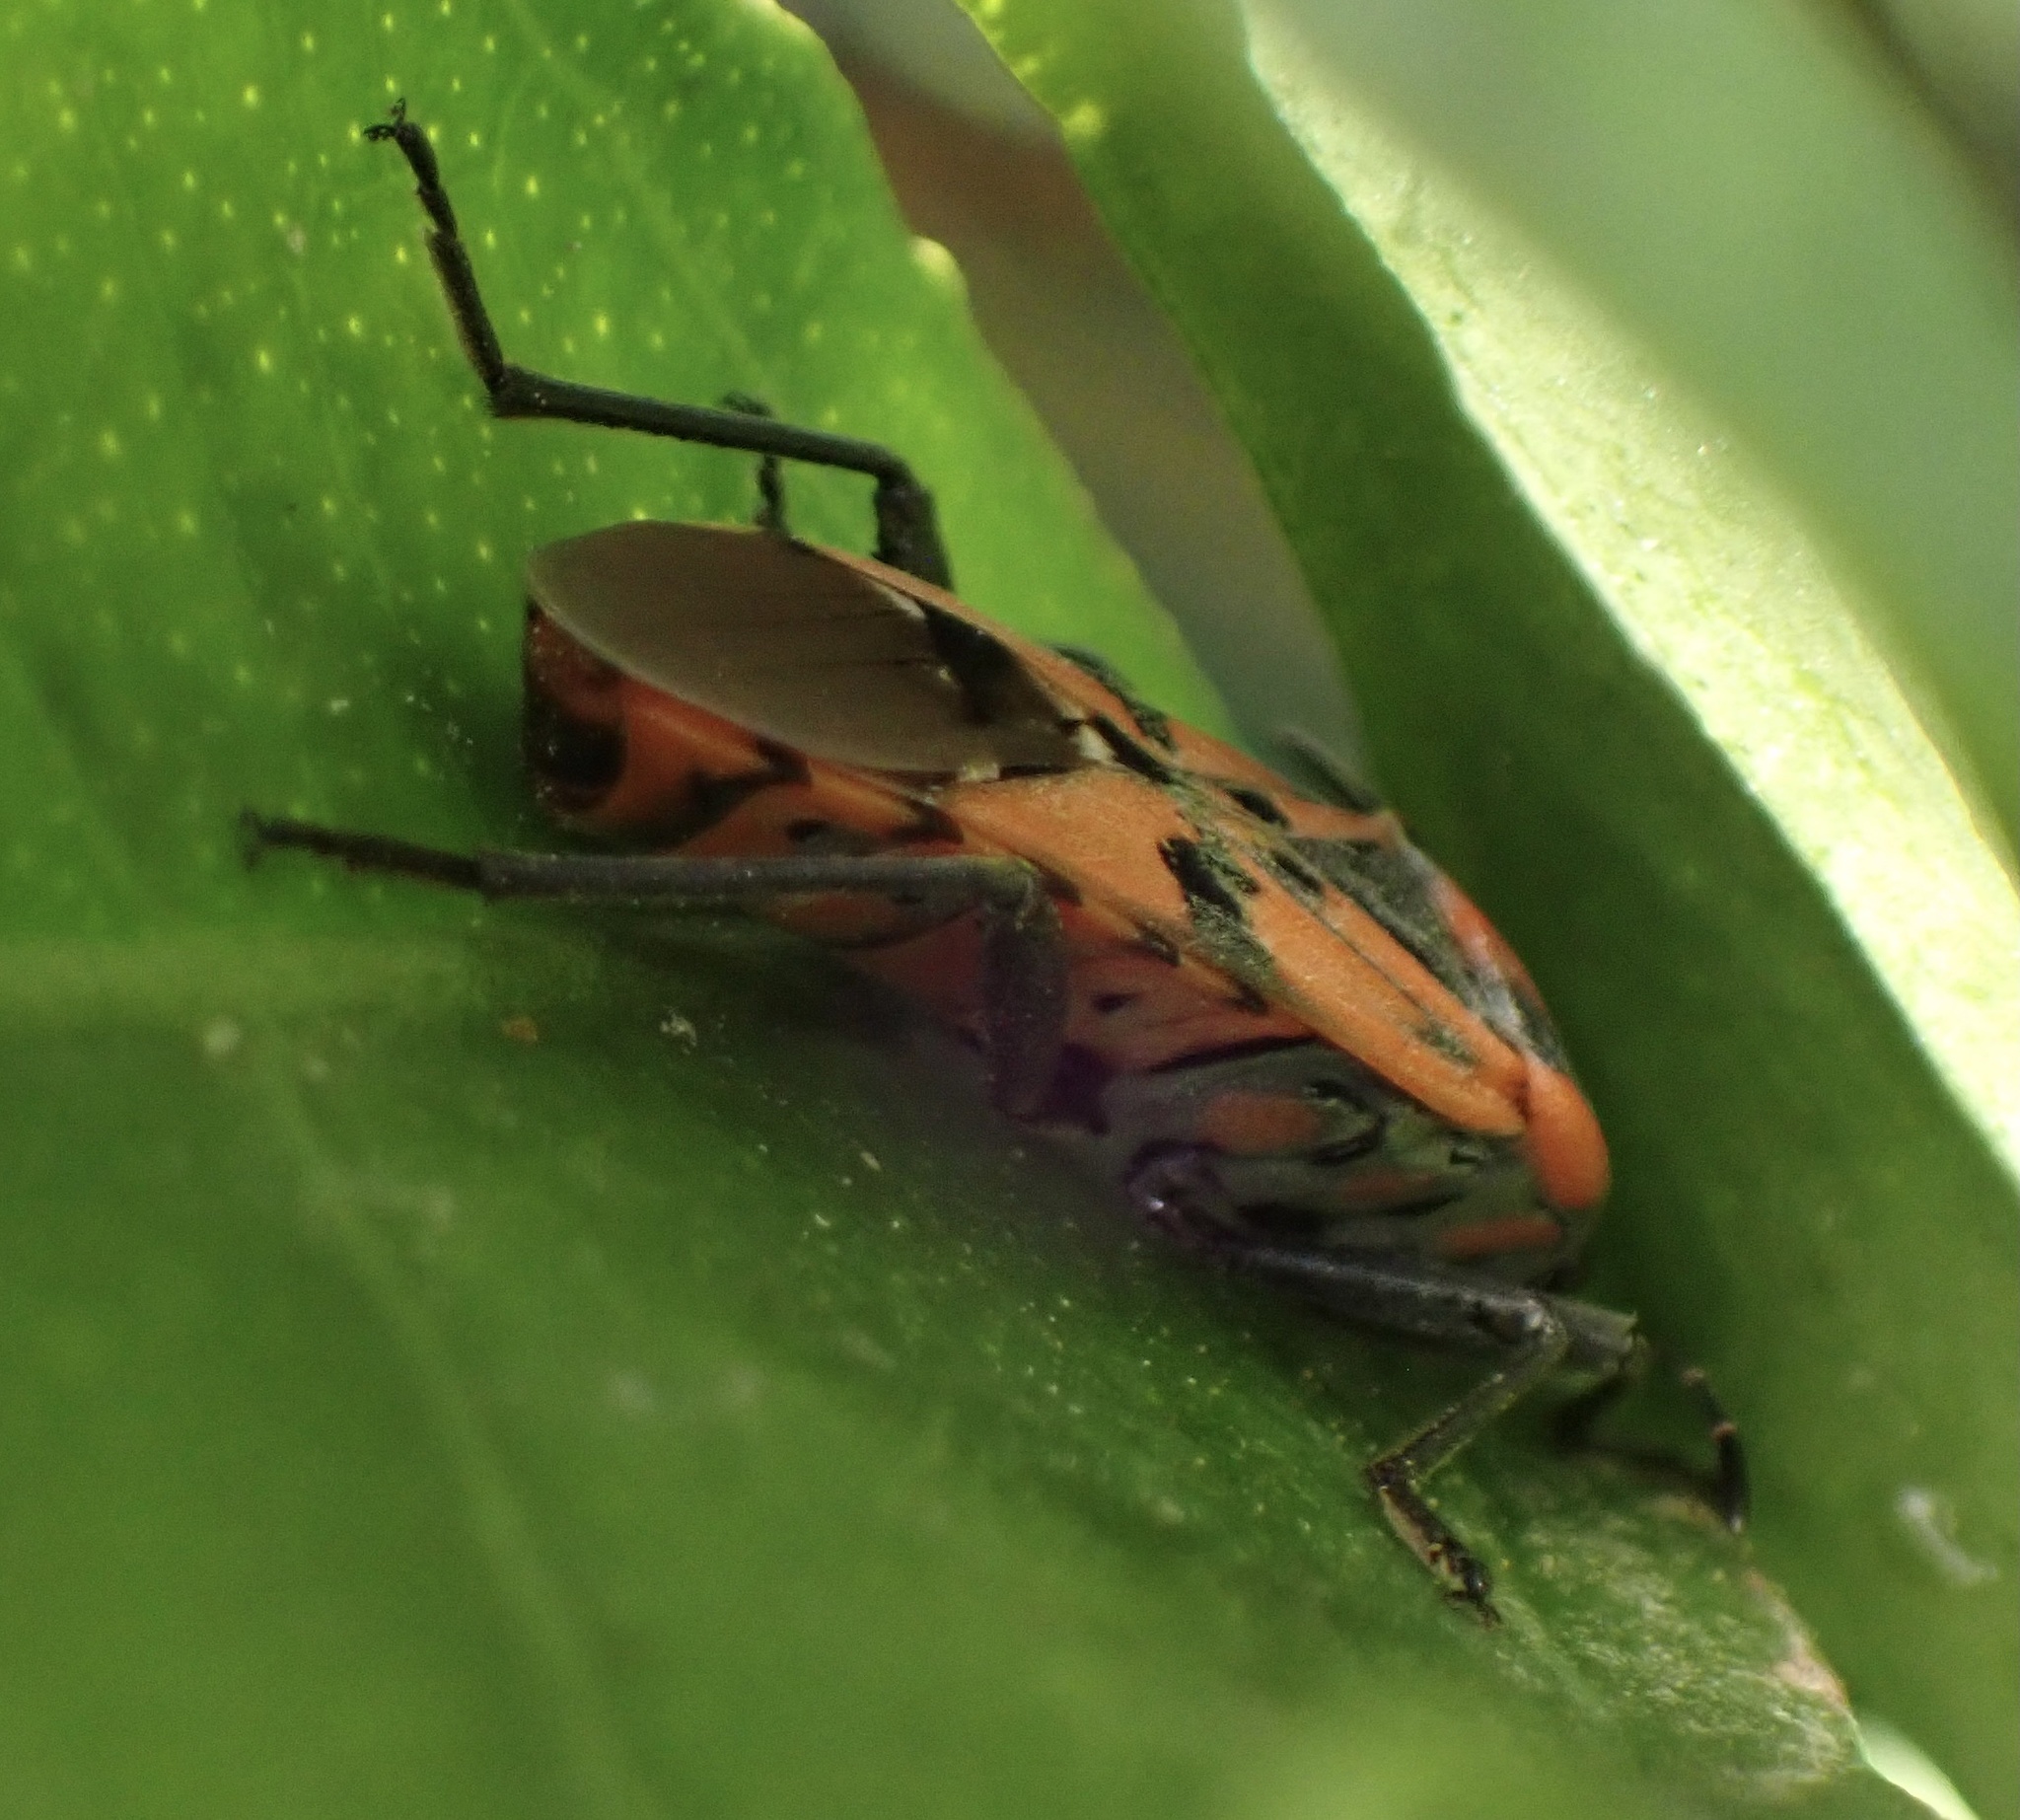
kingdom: Animalia
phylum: Arthropoda
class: Insecta
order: Hemiptera
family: Lygaeidae
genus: Spilostethus
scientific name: Spilostethus pandurus
